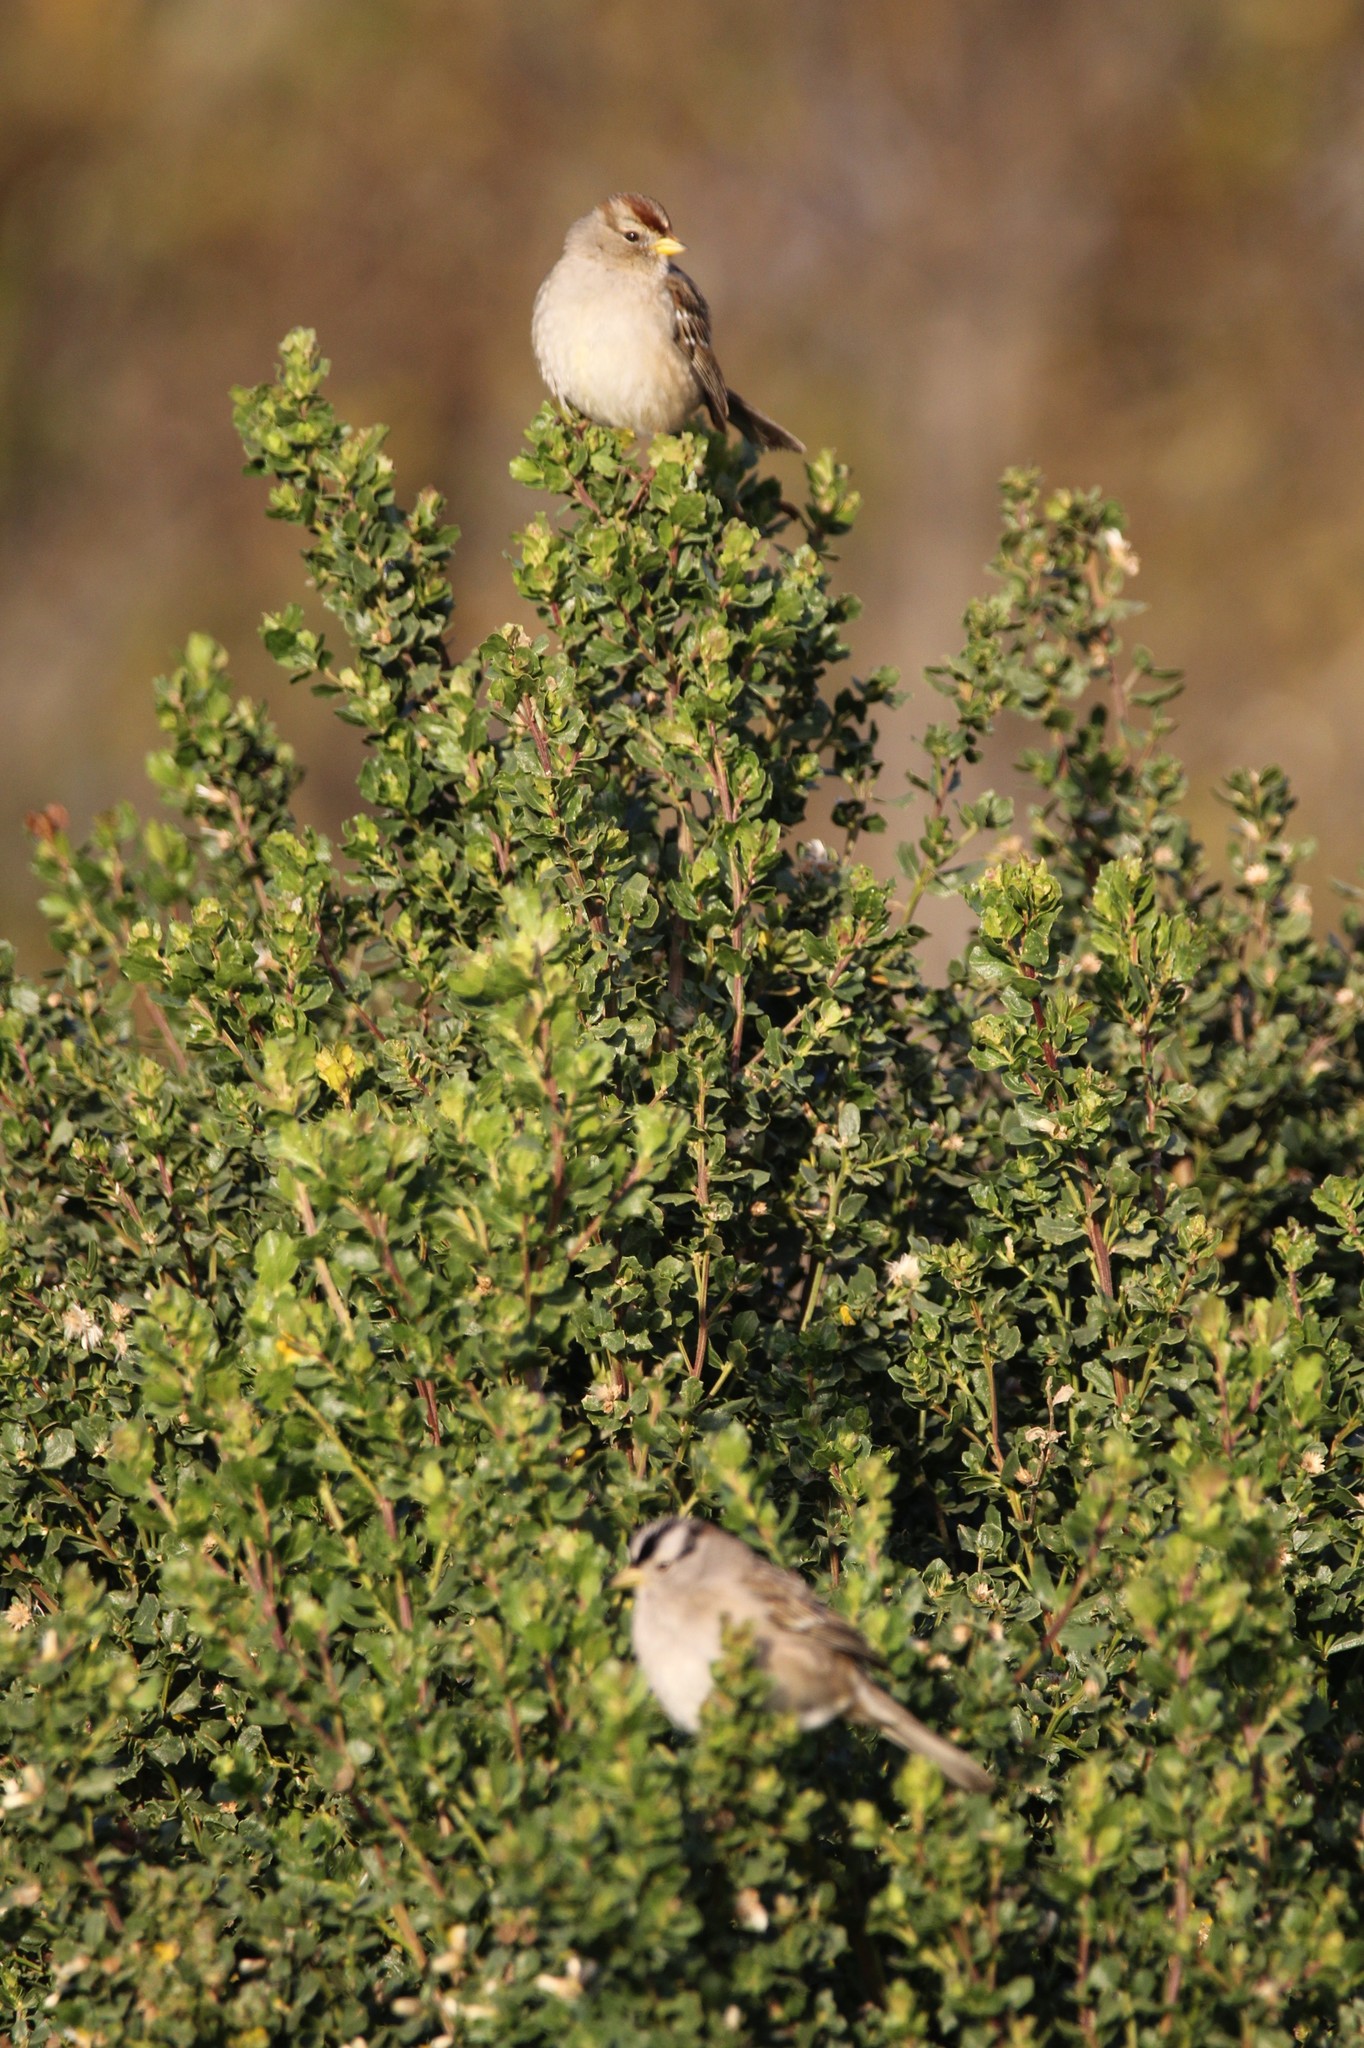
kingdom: Animalia
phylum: Chordata
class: Aves
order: Passeriformes
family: Passerellidae
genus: Zonotrichia
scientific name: Zonotrichia leucophrys
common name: White-crowned sparrow
